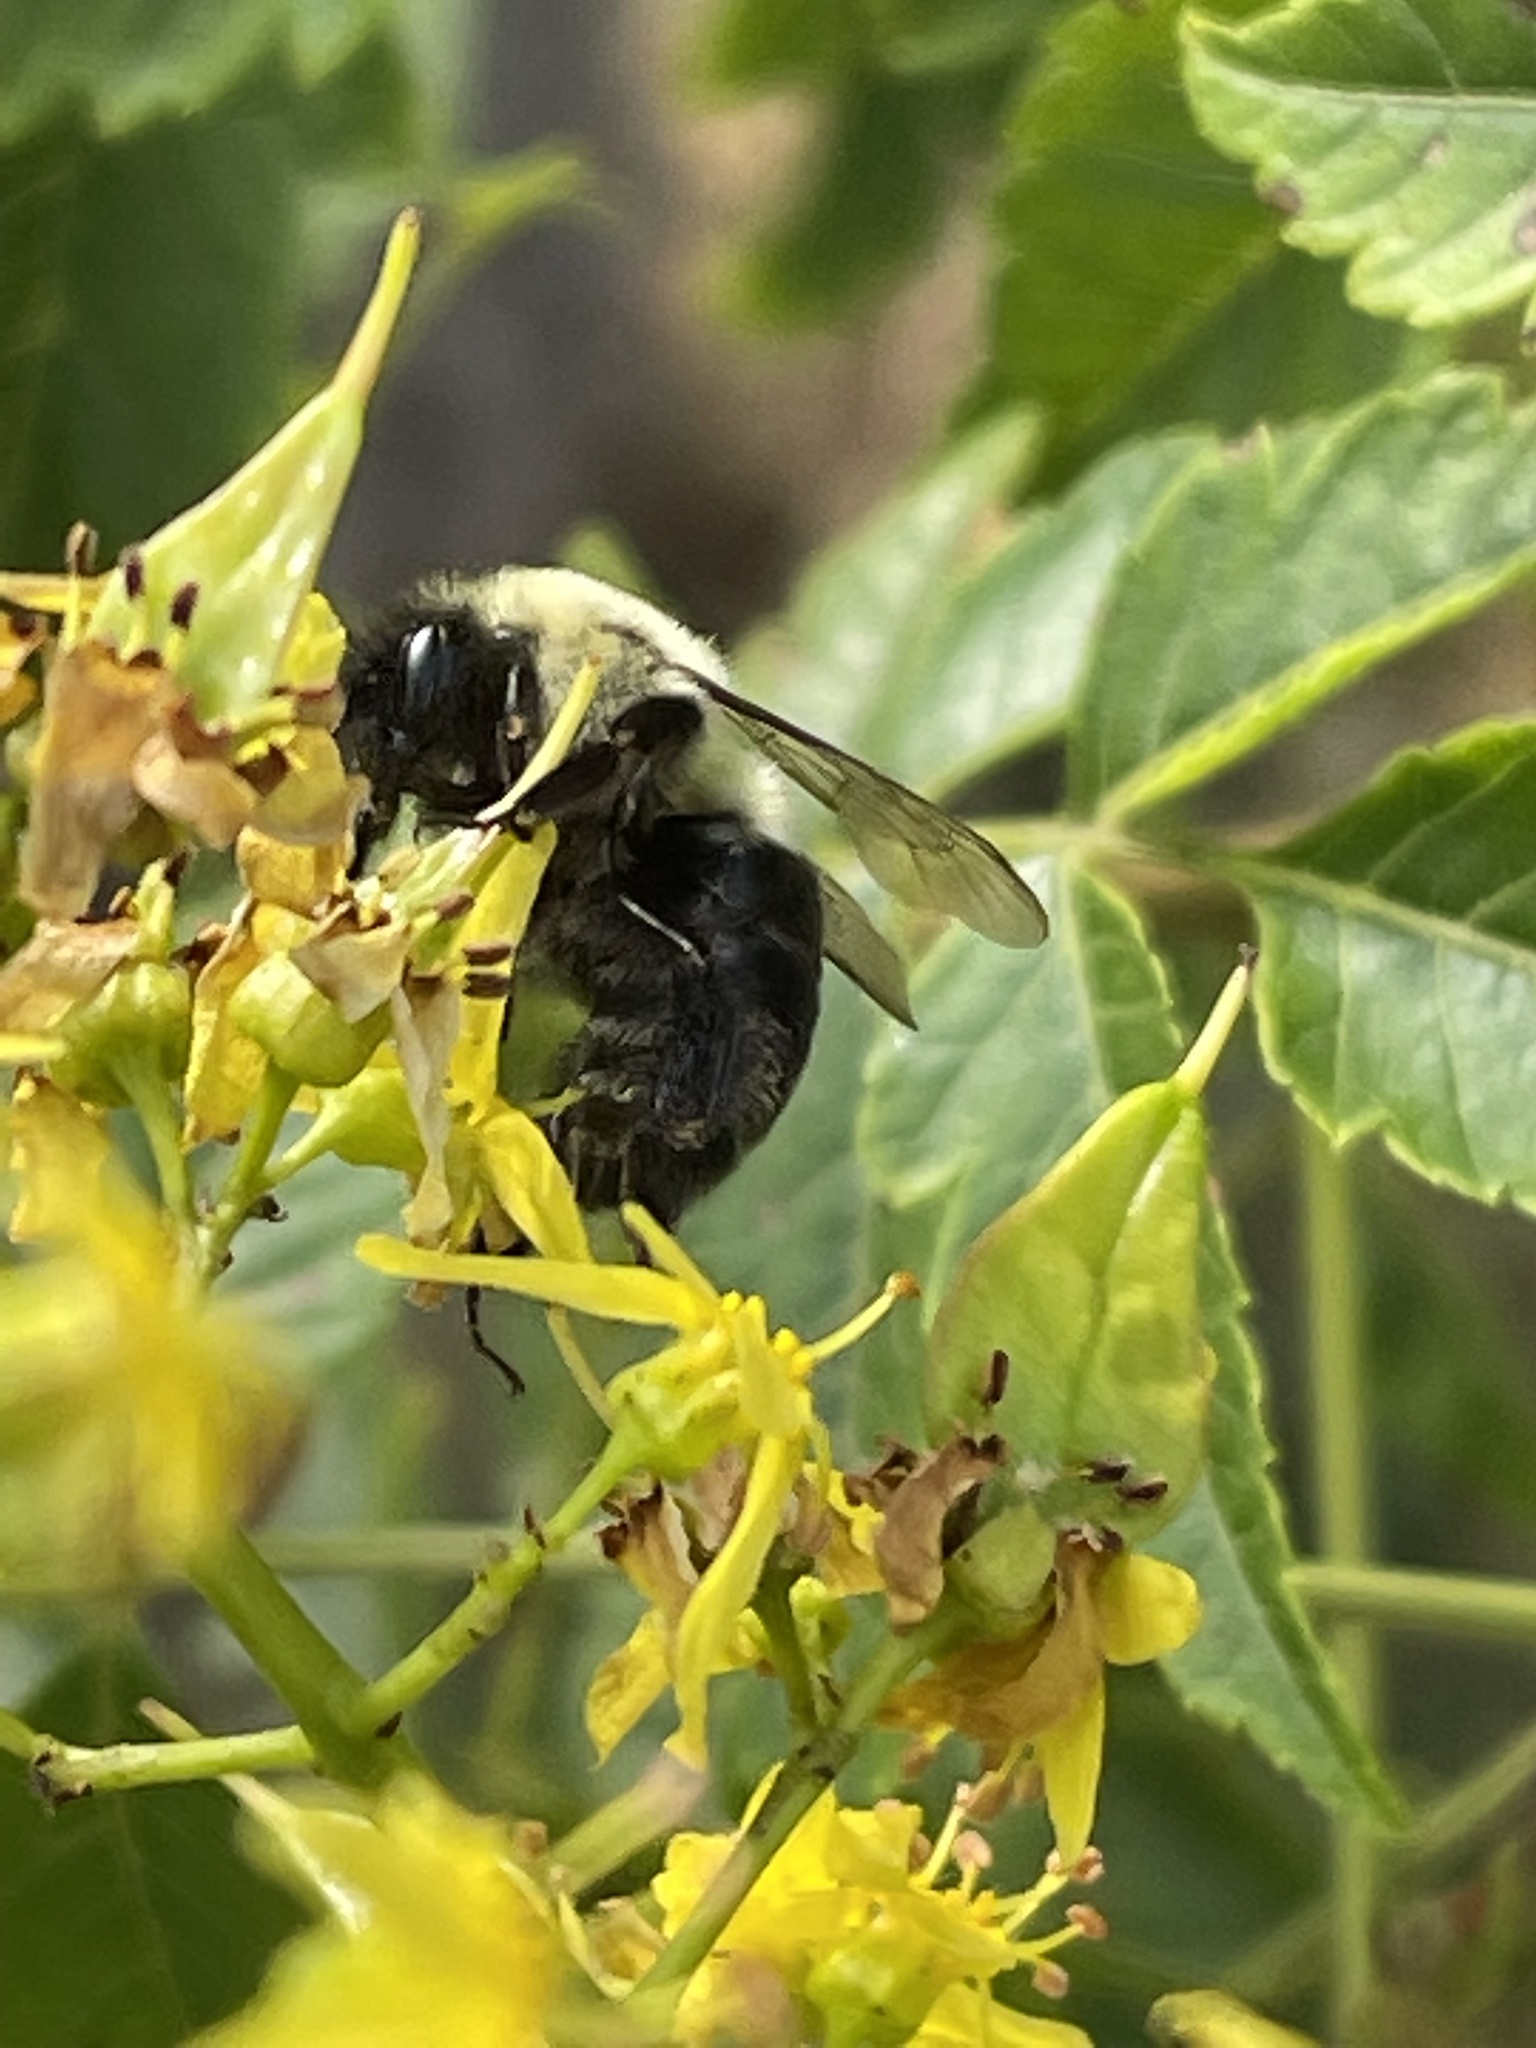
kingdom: Animalia
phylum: Arthropoda
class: Insecta
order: Hymenoptera
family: Apidae
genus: Bombus
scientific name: Bombus impatiens
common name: Common eastern bumble bee
